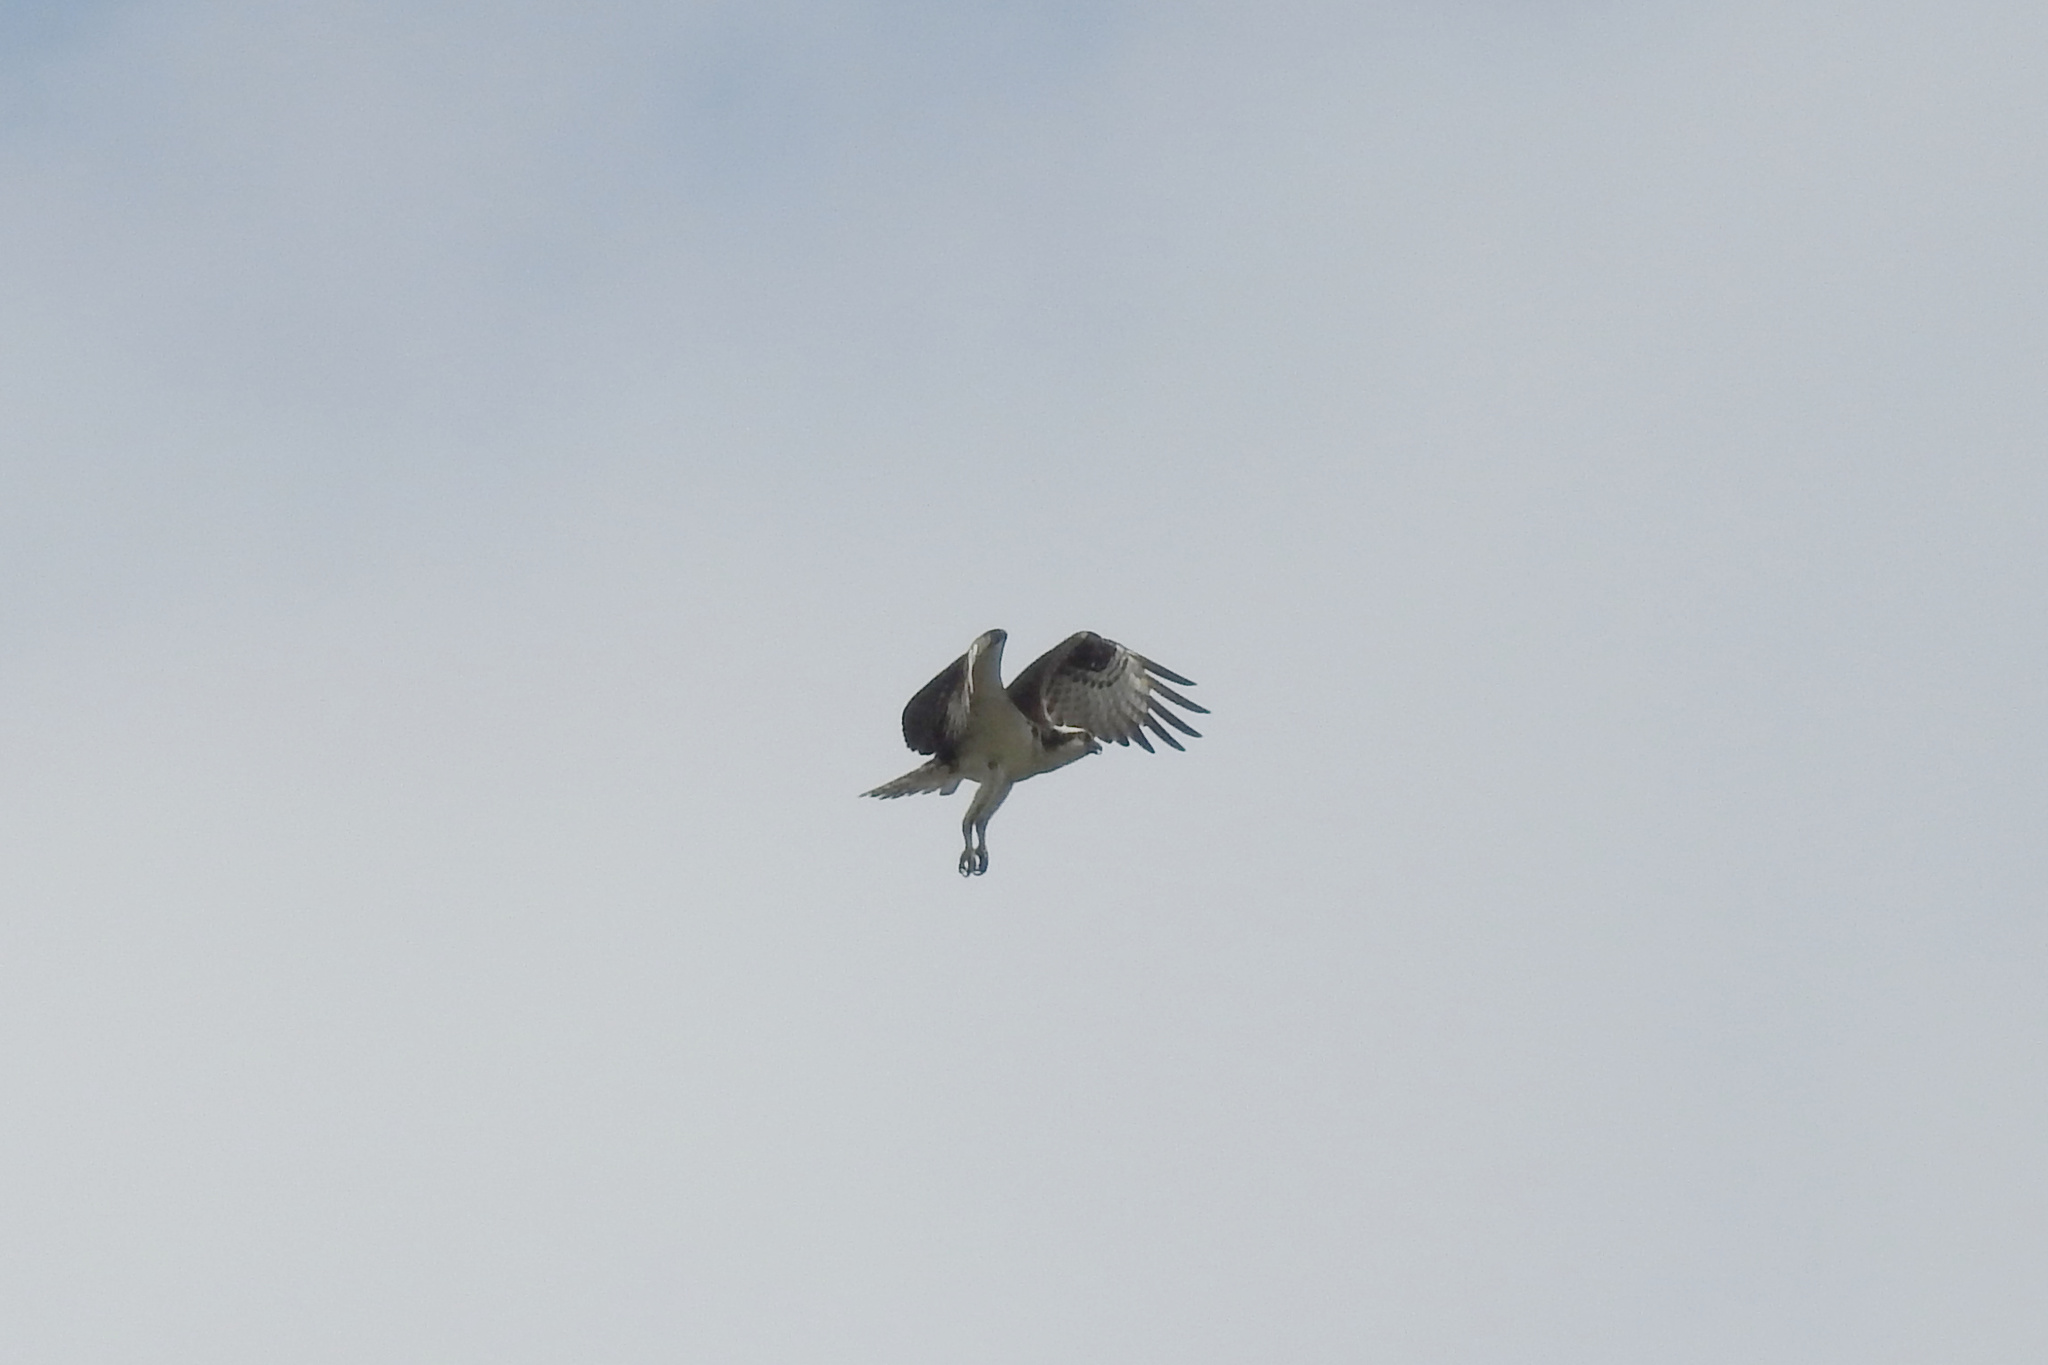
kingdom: Animalia
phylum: Chordata
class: Aves
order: Accipitriformes
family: Pandionidae
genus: Pandion
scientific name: Pandion haliaetus
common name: Osprey
